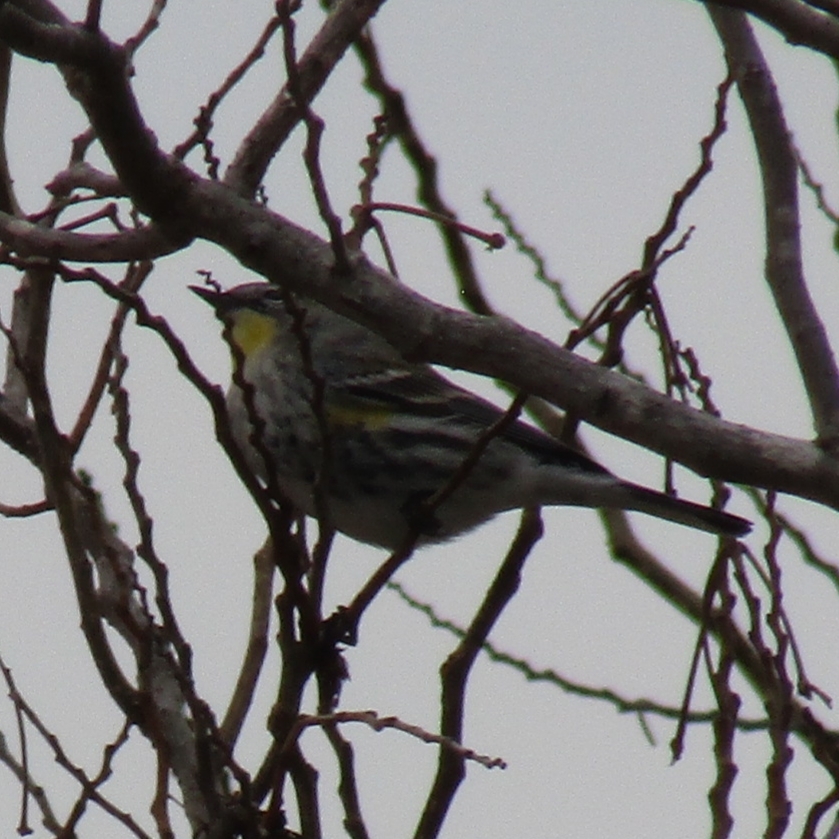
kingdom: Animalia
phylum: Chordata
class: Aves
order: Passeriformes
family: Parulidae
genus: Setophaga
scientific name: Setophaga coronata
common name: Myrtle warbler
